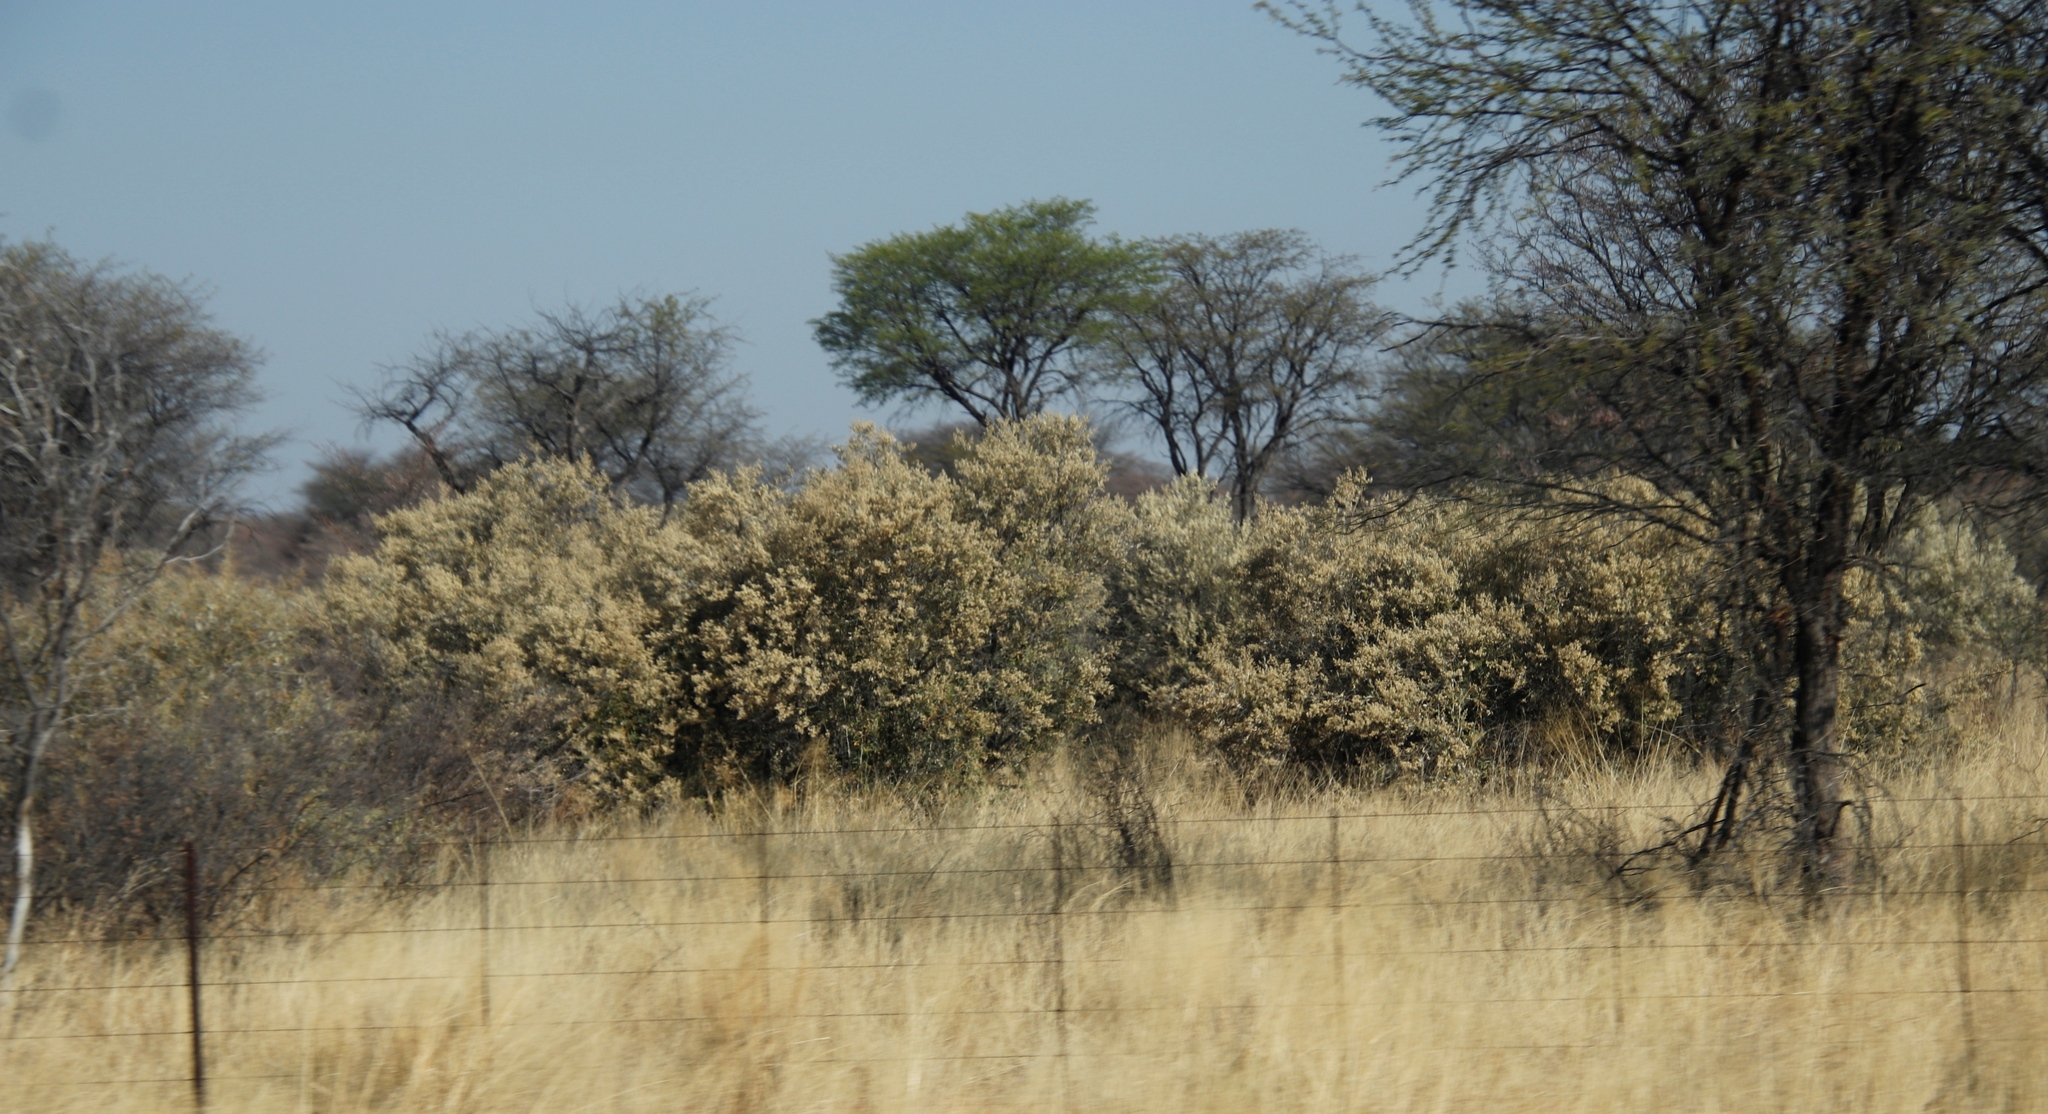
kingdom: Plantae
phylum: Tracheophyta
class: Magnoliopsida
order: Asterales
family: Asteraceae
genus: Tarchonanthus
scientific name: Tarchonanthus camphoratus
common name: Camphorwood
